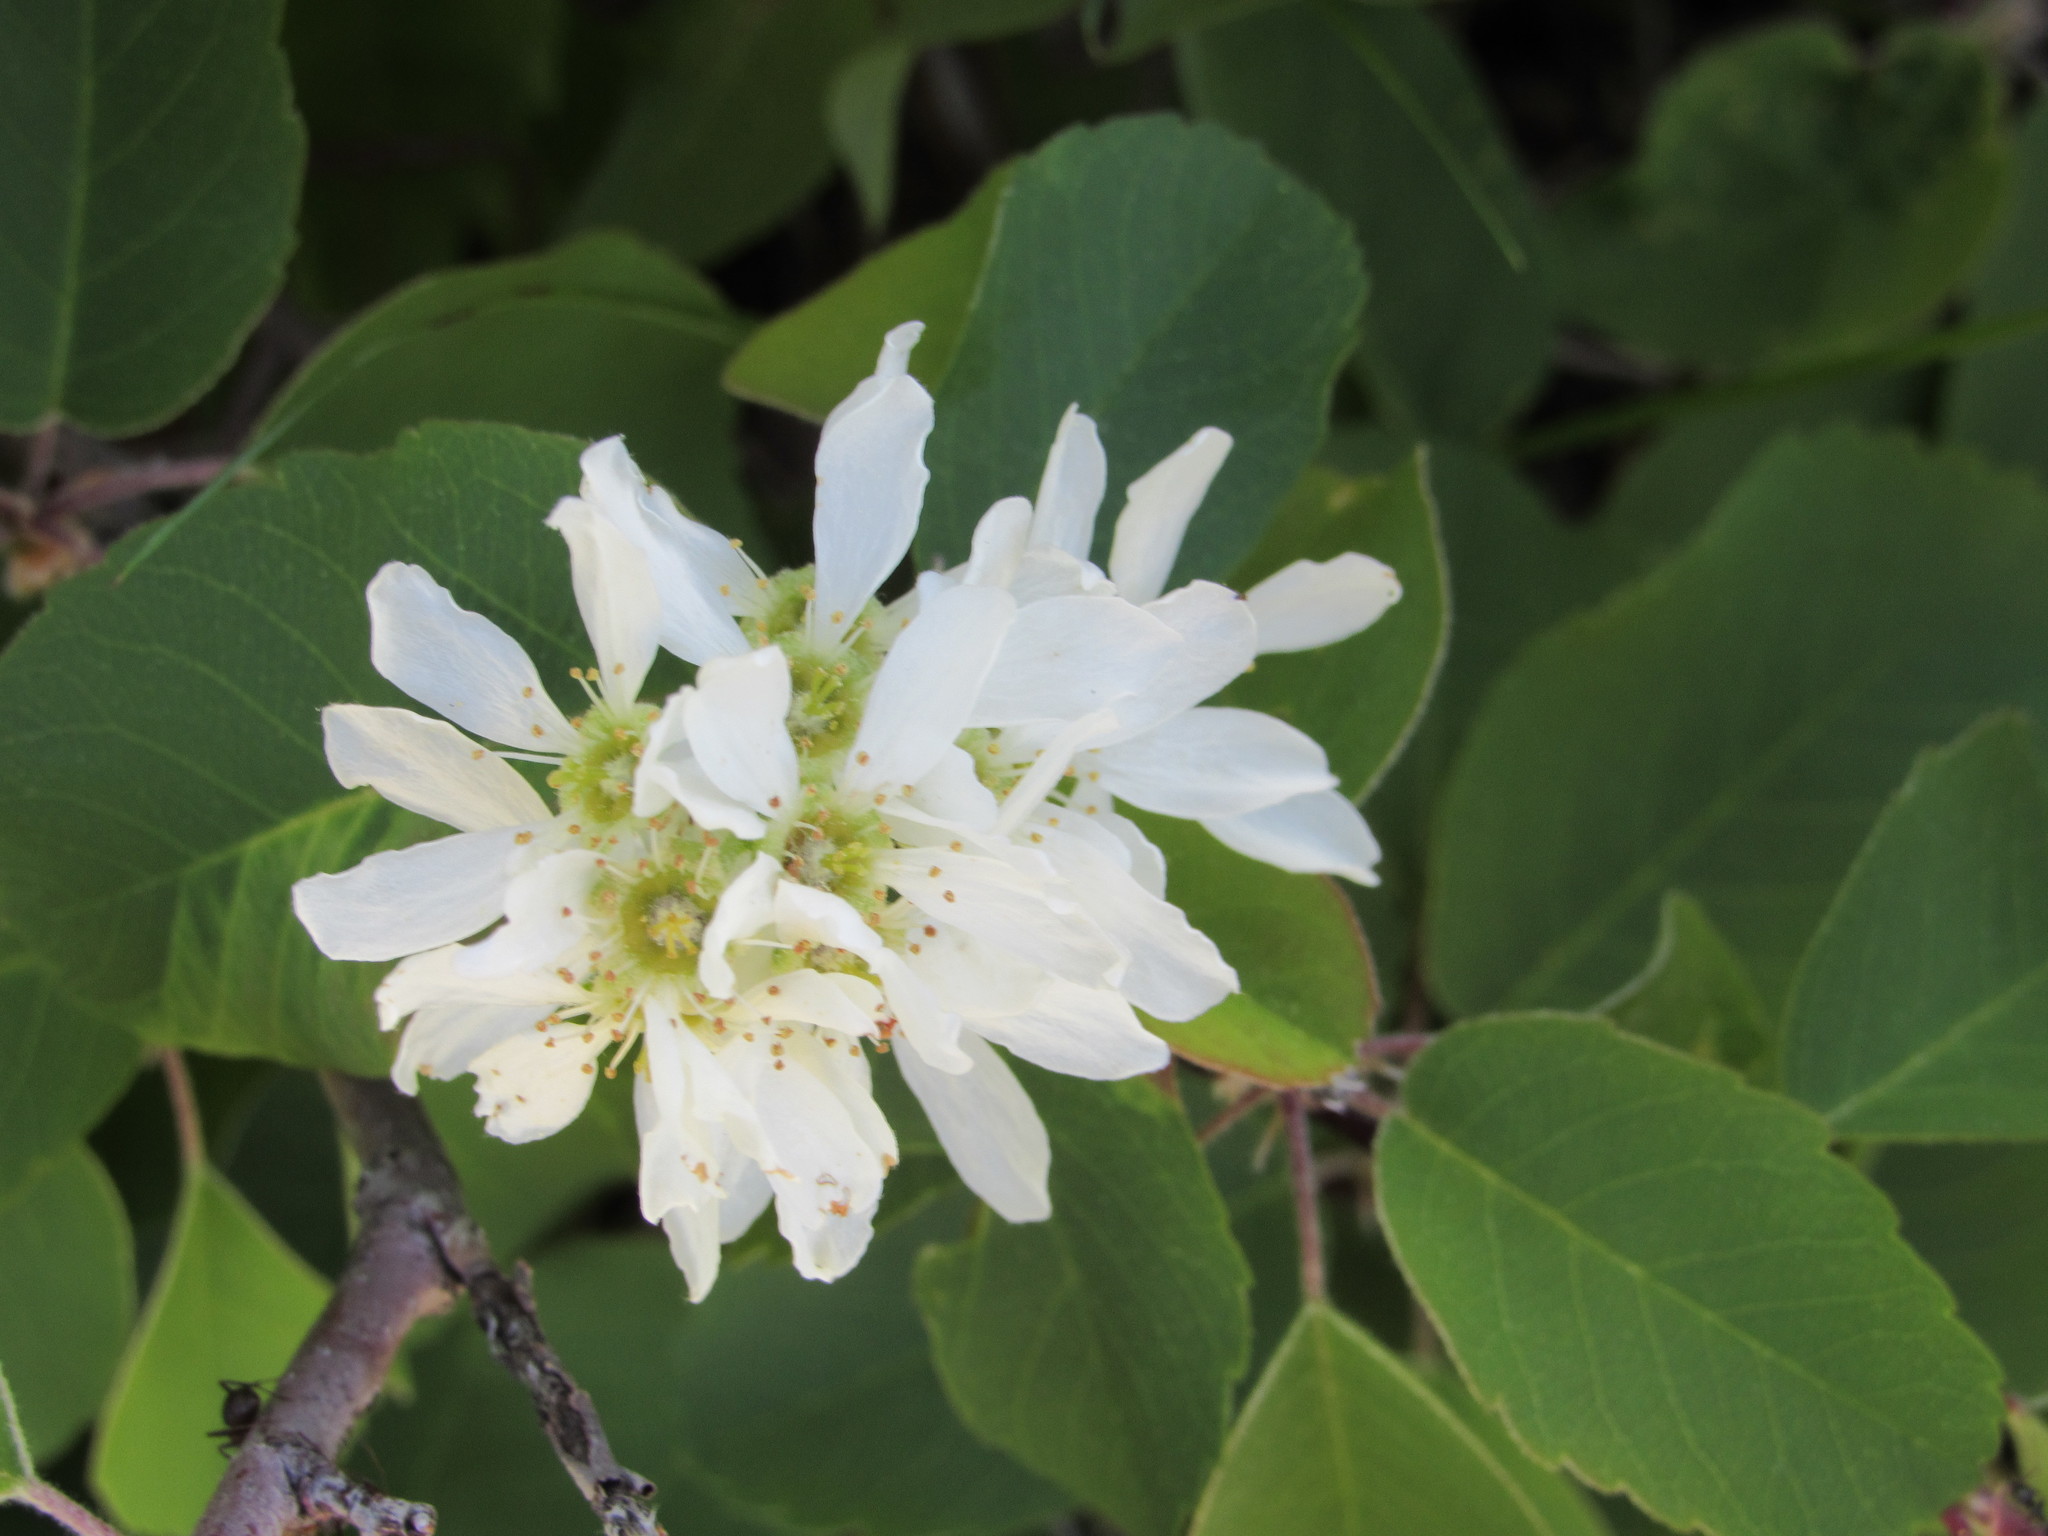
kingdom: Plantae
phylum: Tracheophyta
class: Magnoliopsida
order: Rosales
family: Rosaceae
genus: Amelanchier
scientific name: Amelanchier alnifolia
